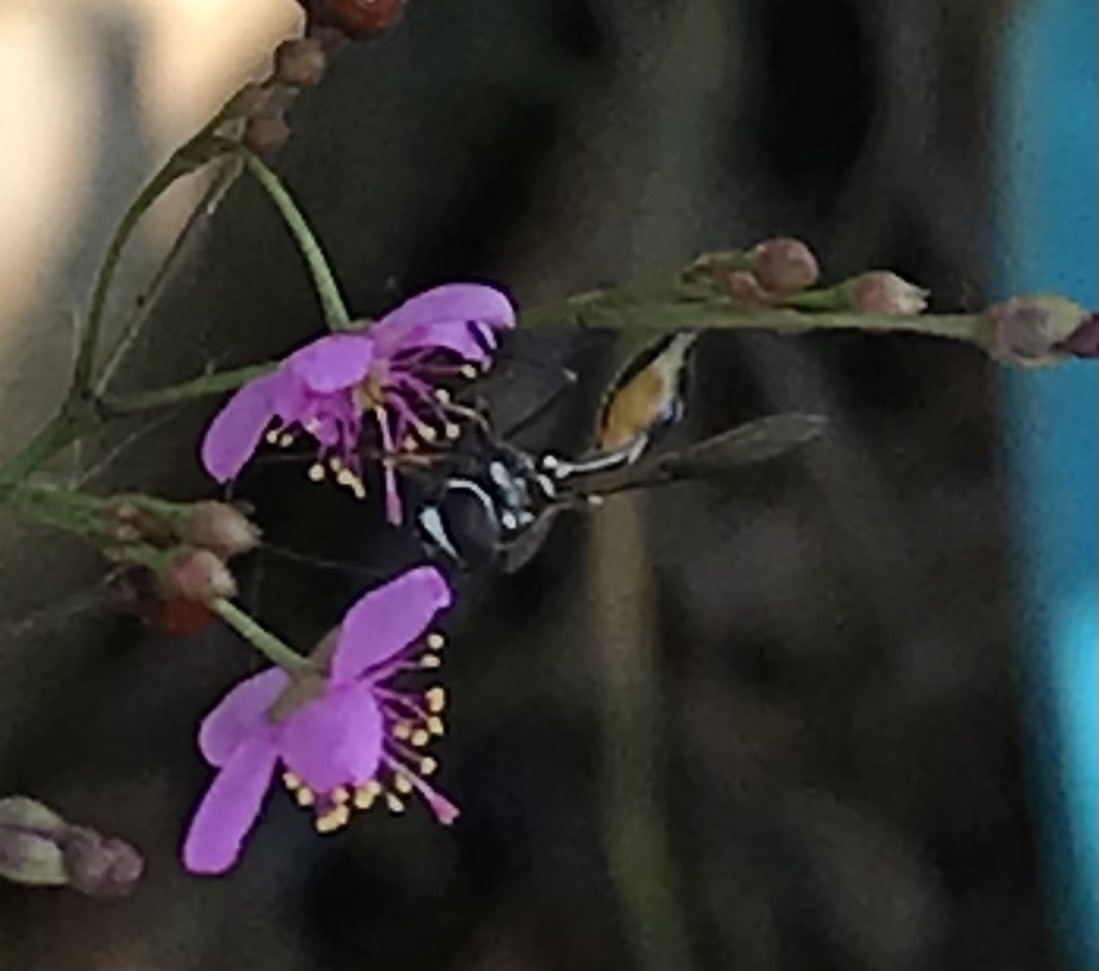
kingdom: Animalia
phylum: Arthropoda
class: Insecta
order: Diptera
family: Syrphidae
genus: Dioprosopa
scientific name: Dioprosopa clavatus
